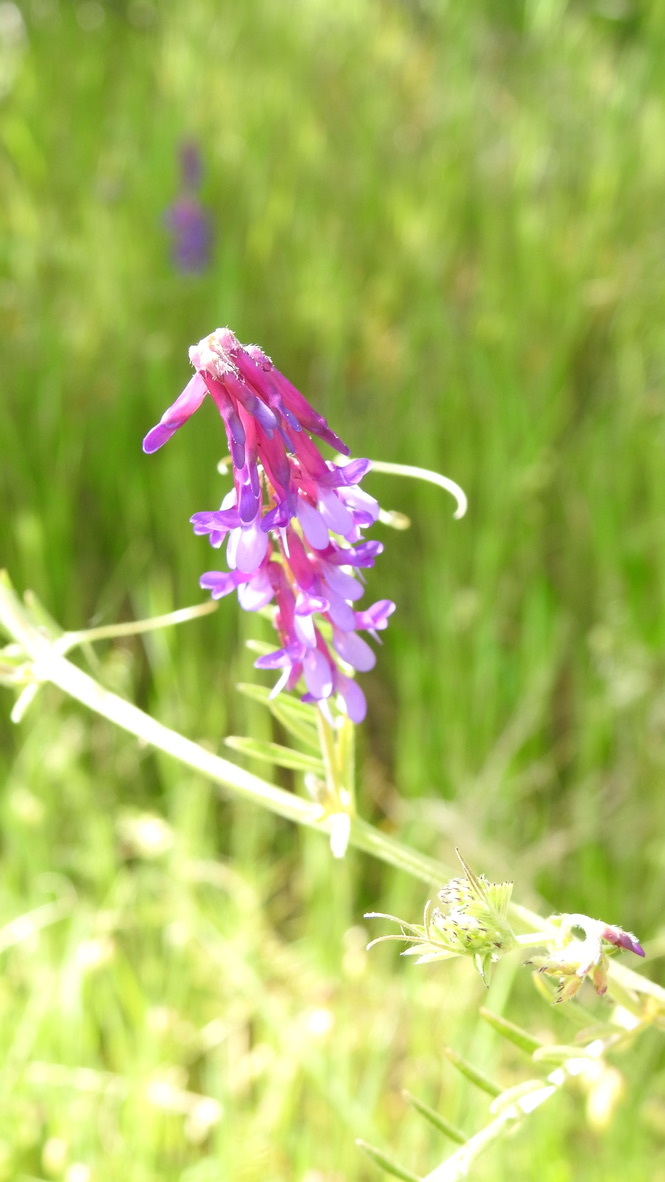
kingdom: Plantae
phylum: Tracheophyta
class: Magnoliopsida
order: Fabales
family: Fabaceae
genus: Vicia
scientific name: Vicia villosa
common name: Fodder vetch
